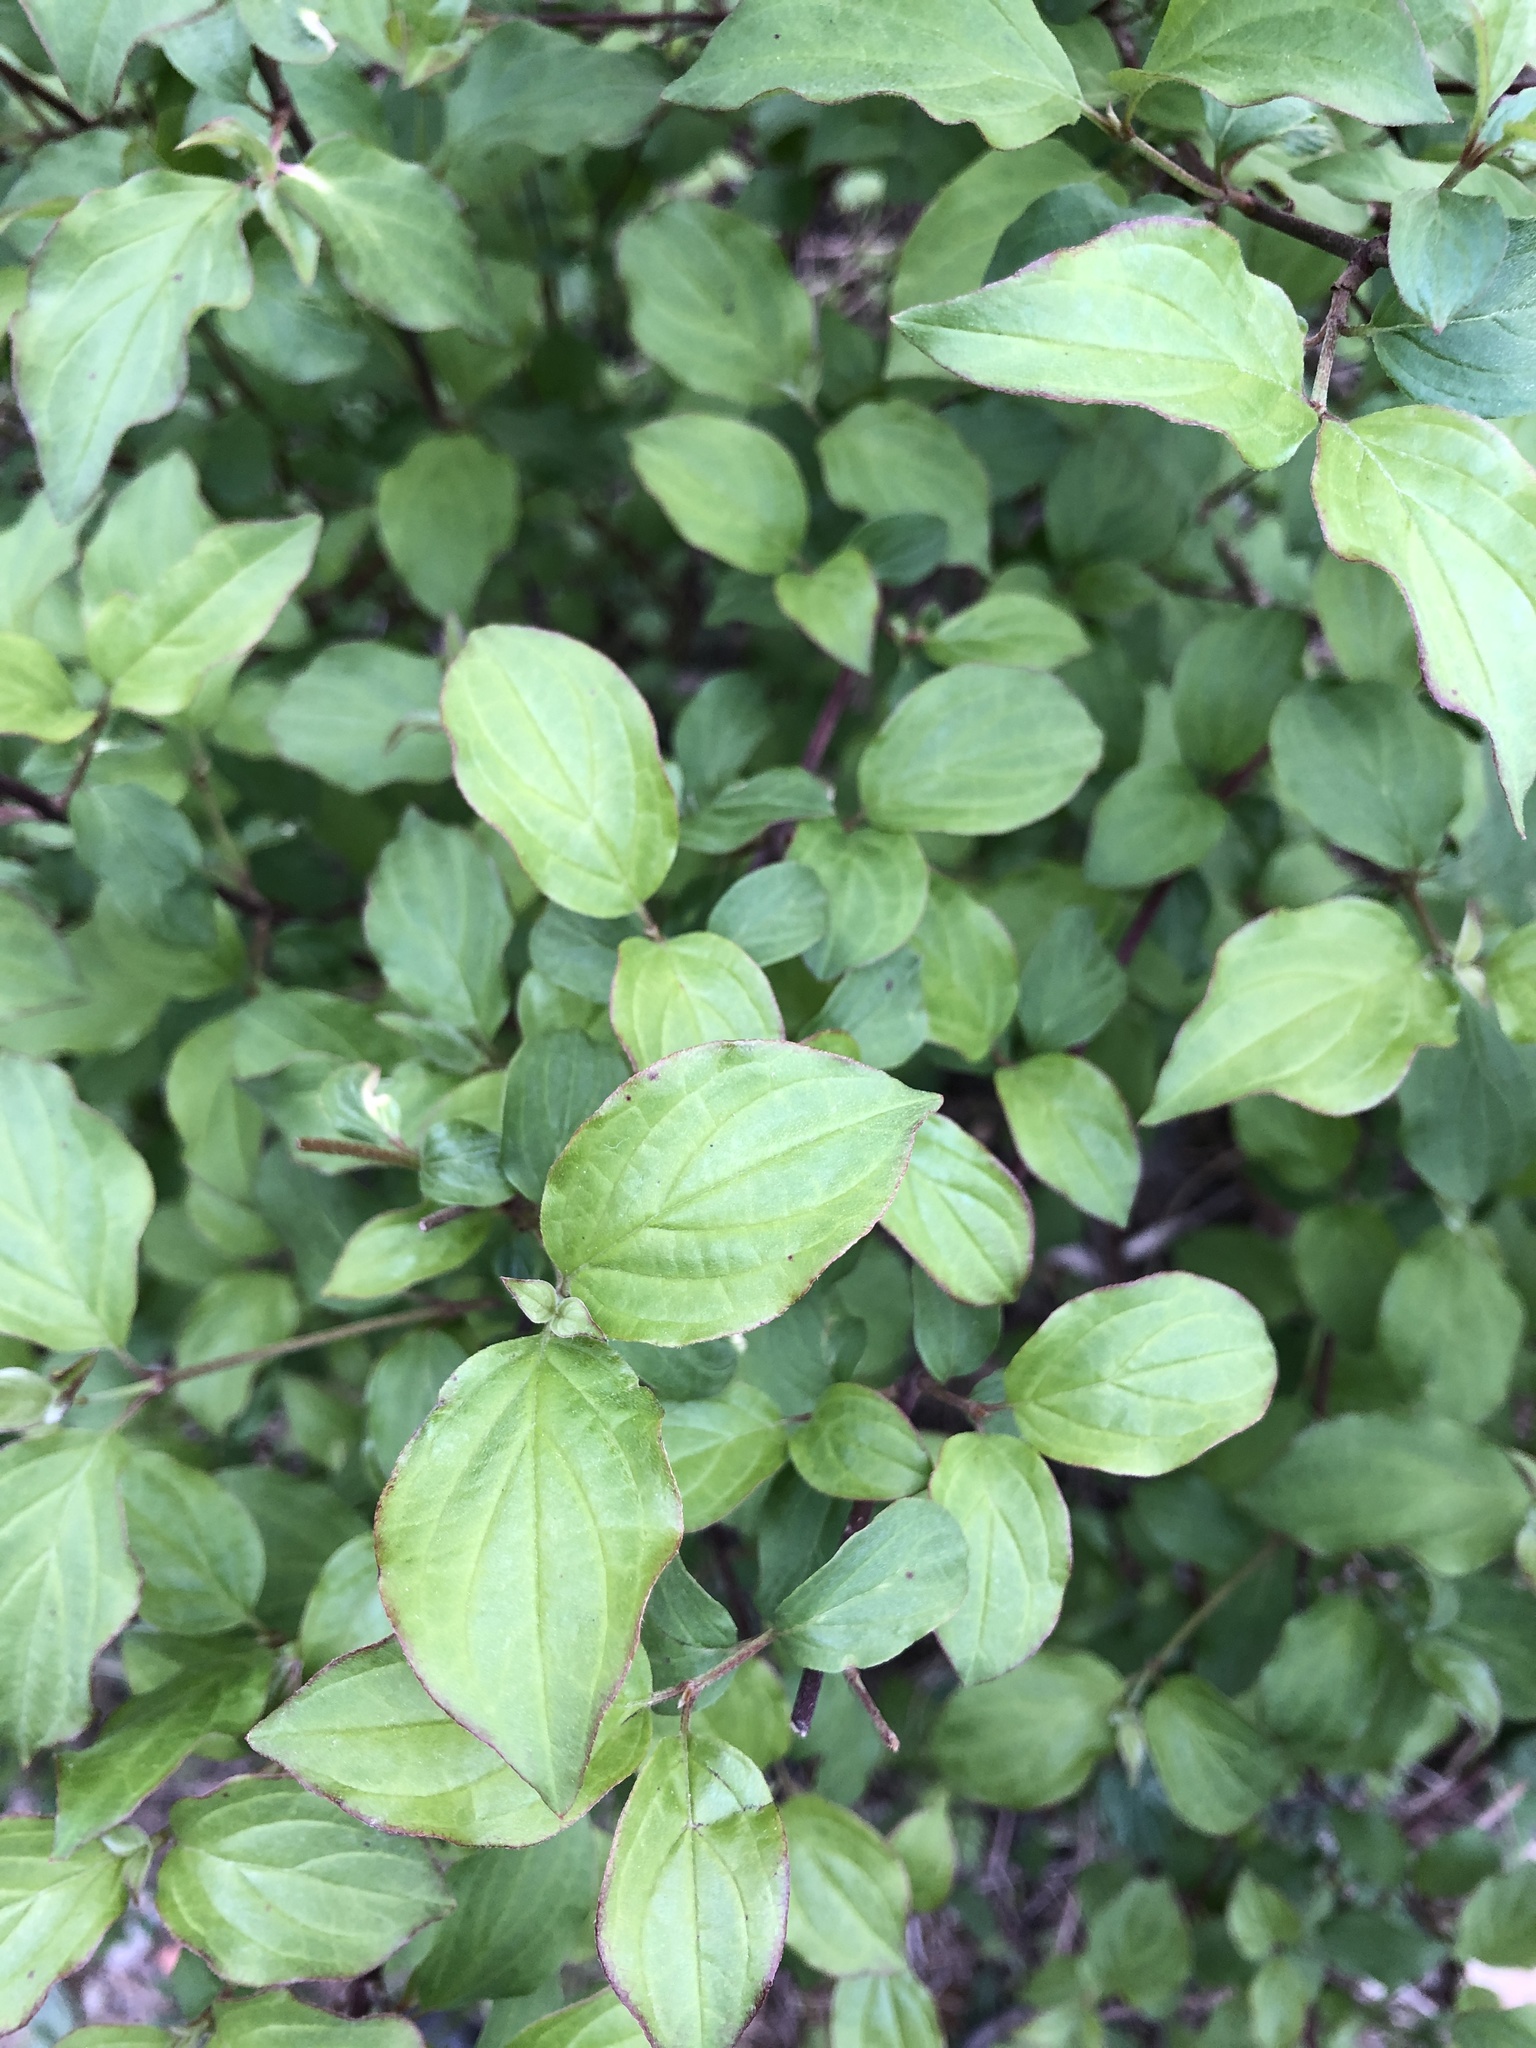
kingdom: Plantae
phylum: Tracheophyta
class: Magnoliopsida
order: Cornales
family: Cornaceae
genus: Cornus
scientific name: Cornus sanguinea
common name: Dogwood
